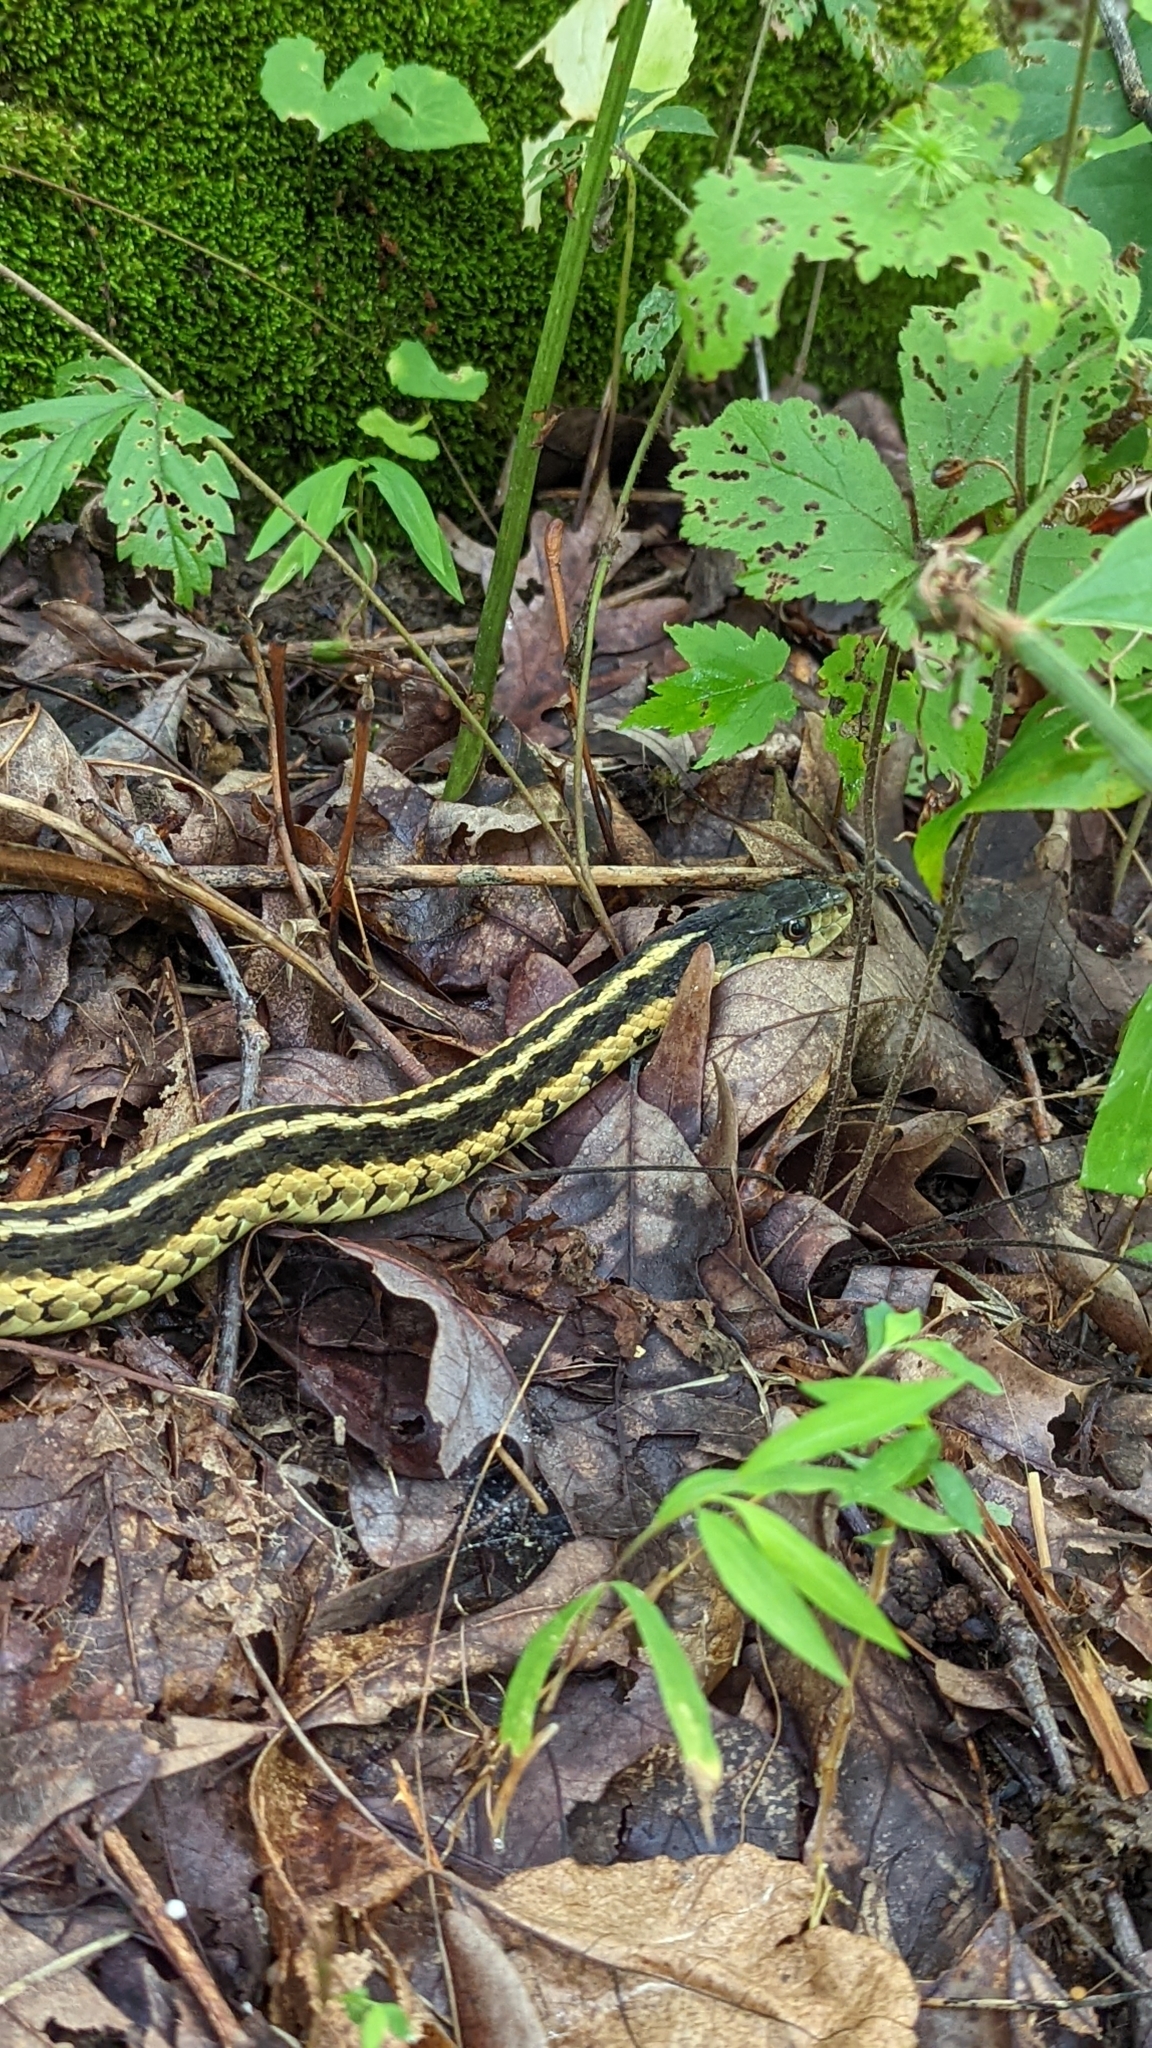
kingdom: Animalia
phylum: Chordata
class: Squamata
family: Colubridae
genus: Thamnophis
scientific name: Thamnophis sirtalis
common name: Common garter snake
